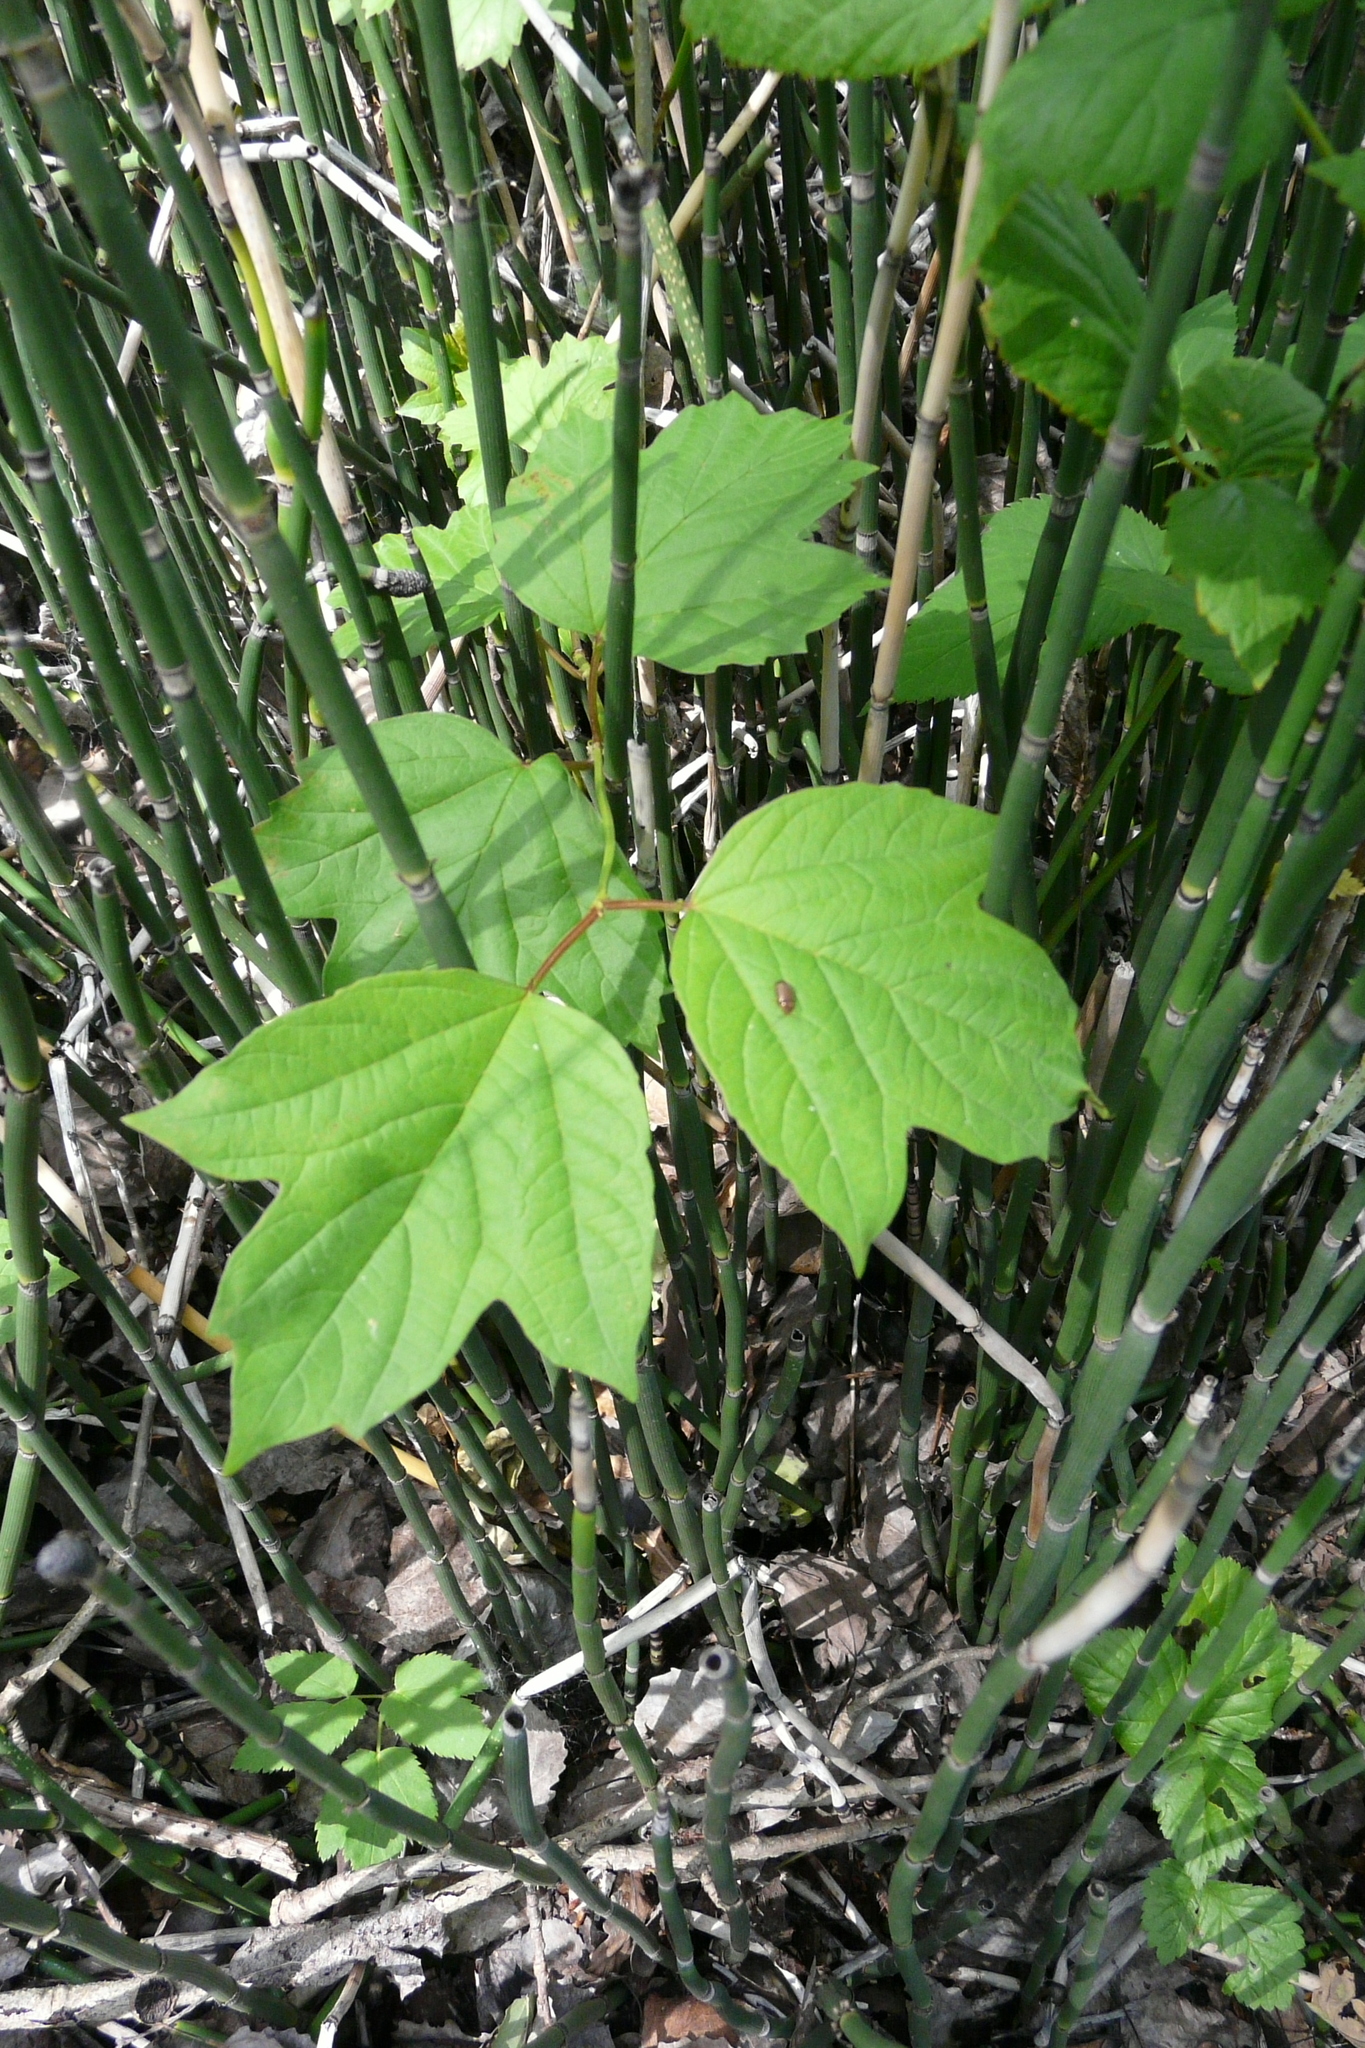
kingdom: Plantae
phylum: Tracheophyta
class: Magnoliopsida
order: Dipsacales
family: Viburnaceae
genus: Viburnum
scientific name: Viburnum opulus
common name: Guelder-rose
